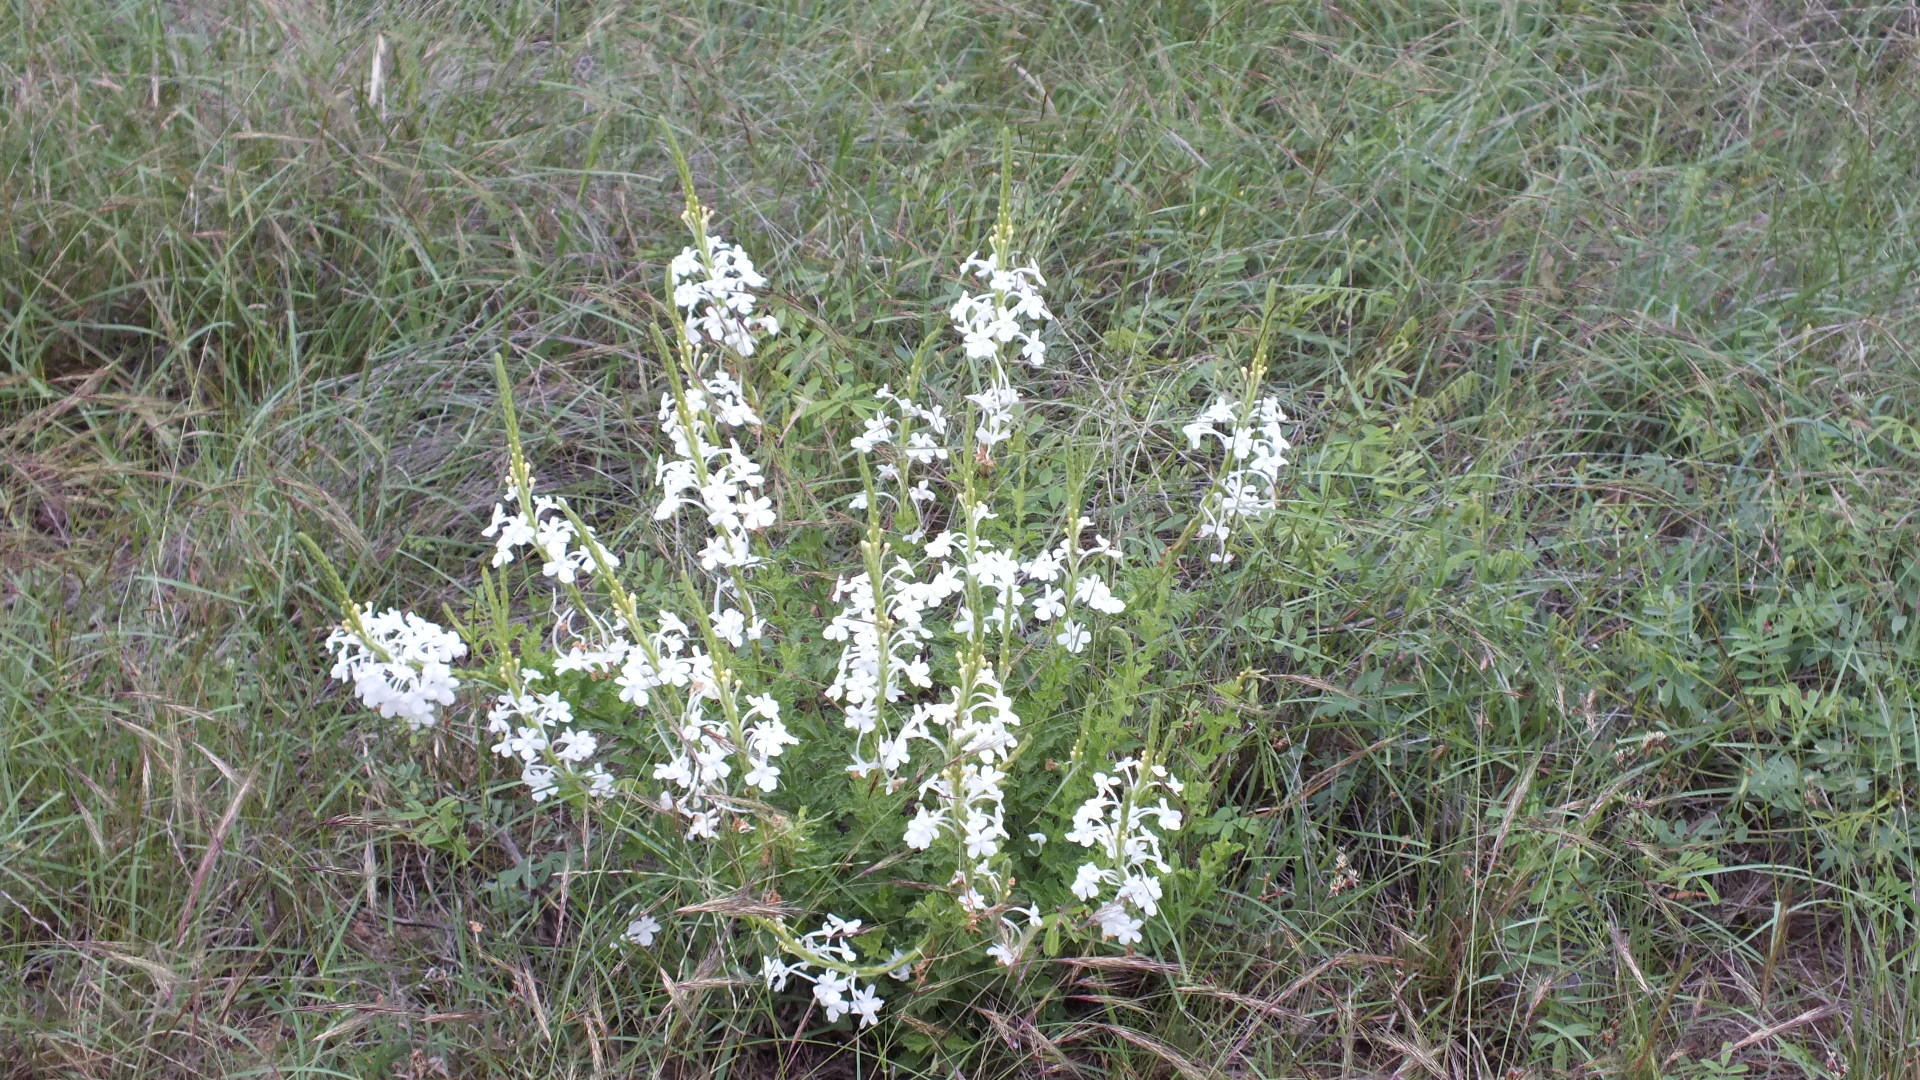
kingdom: Plantae
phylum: Tracheophyta
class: Magnoliopsida
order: Lamiales
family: Verbenaceae
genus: Chascanum
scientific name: Chascanum hederaceum
